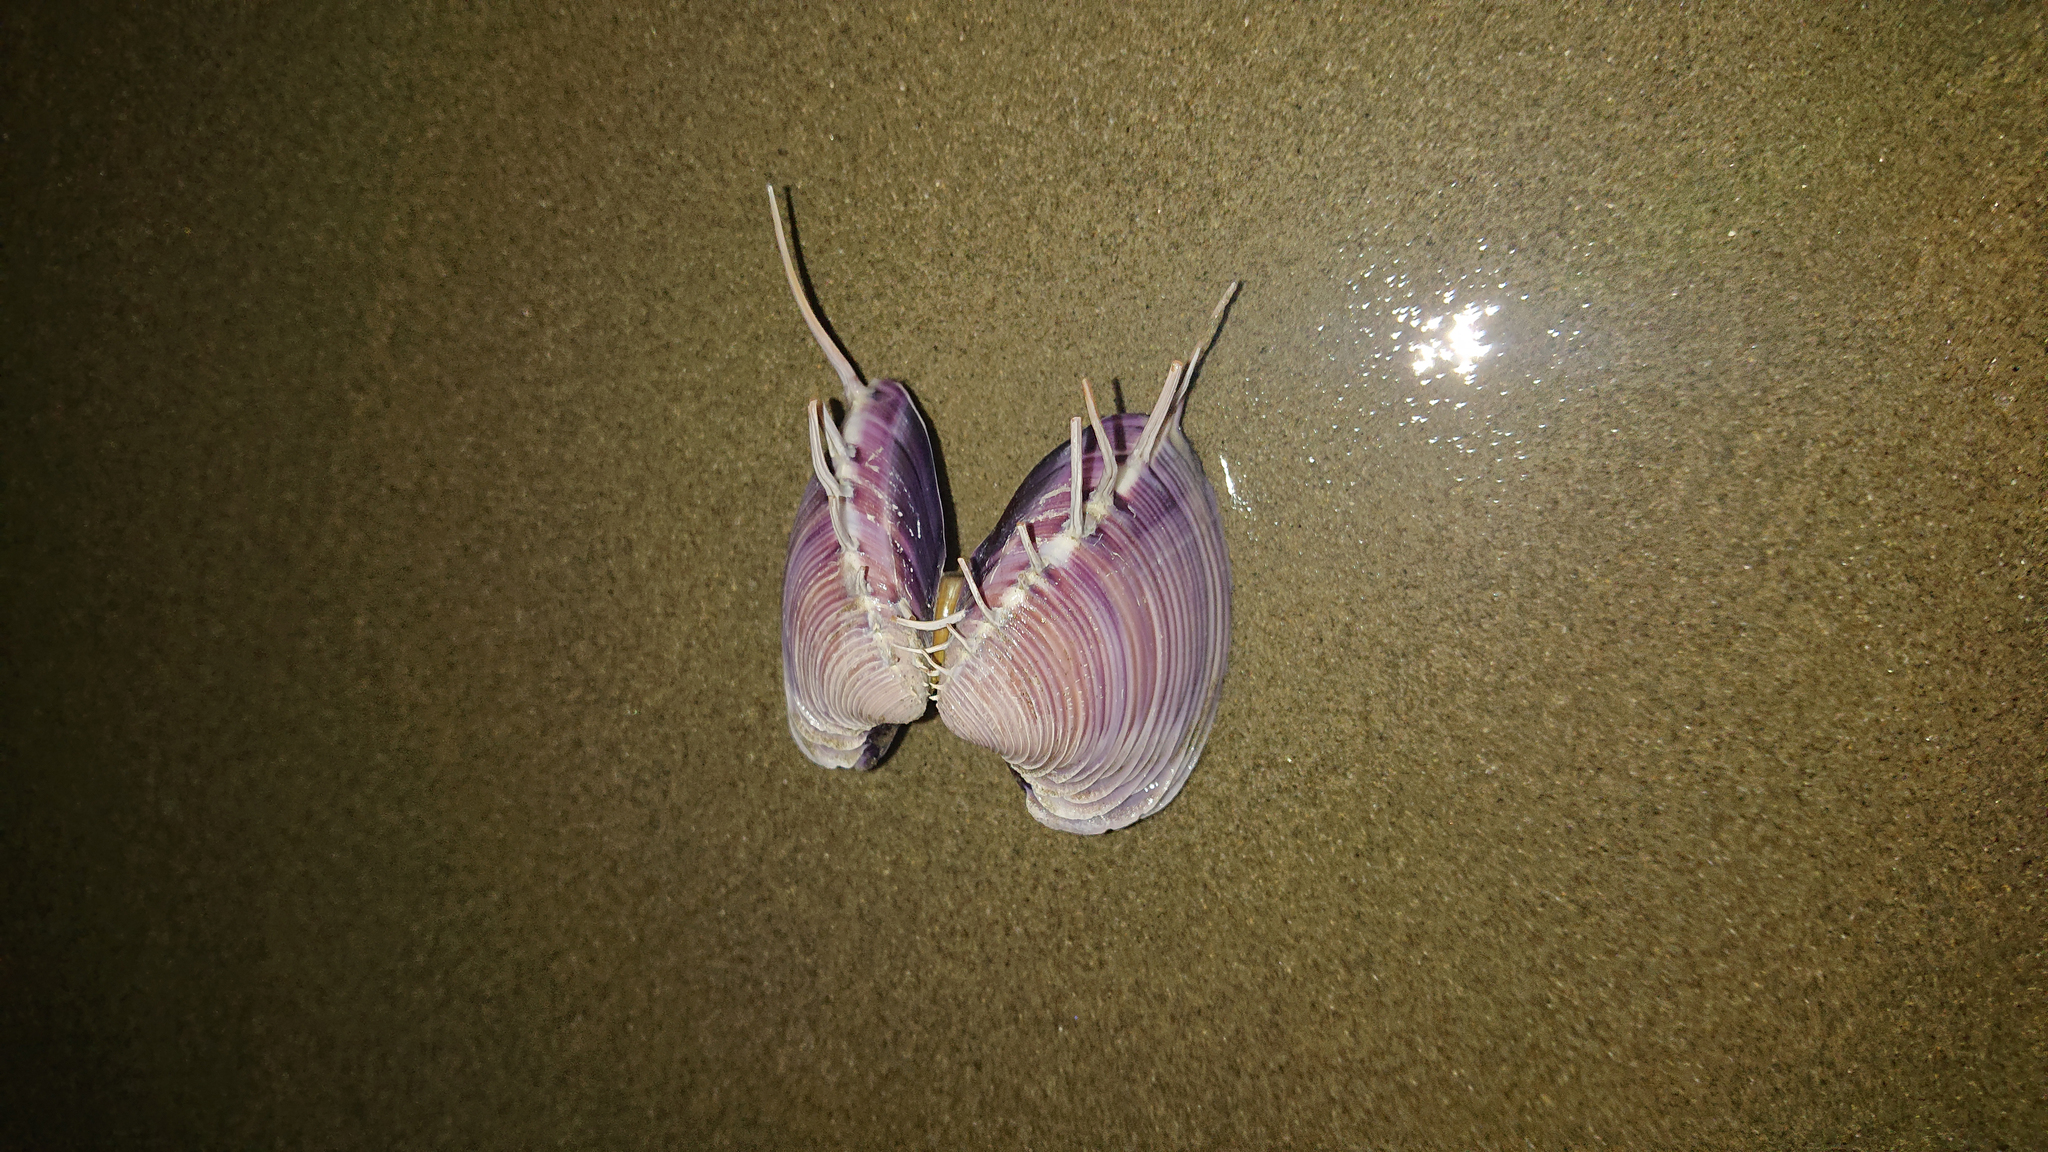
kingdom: Animalia
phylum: Mollusca
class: Bivalvia
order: Venerida
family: Veneridae
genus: Hysteroconcha
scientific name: Hysteroconcha lupanaria
